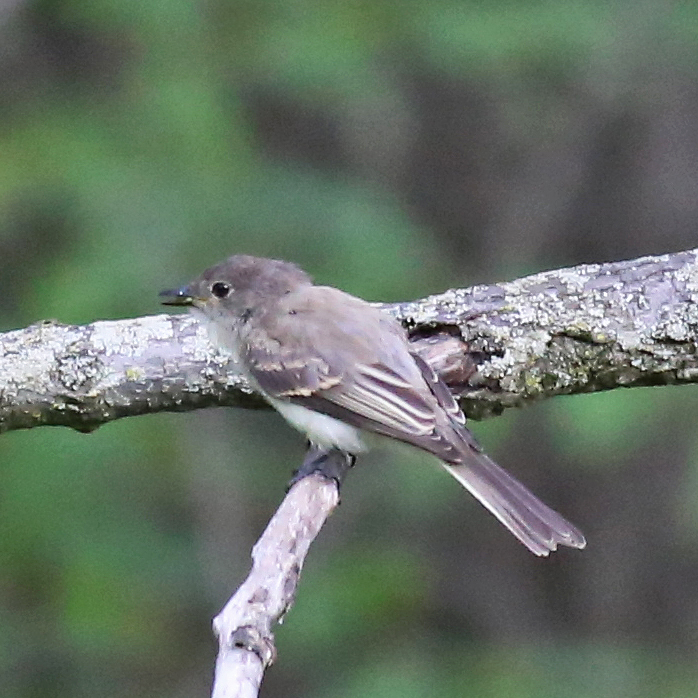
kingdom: Animalia
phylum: Chordata
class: Aves
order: Passeriformes
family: Tyrannidae
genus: Sayornis
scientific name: Sayornis phoebe
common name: Eastern phoebe
